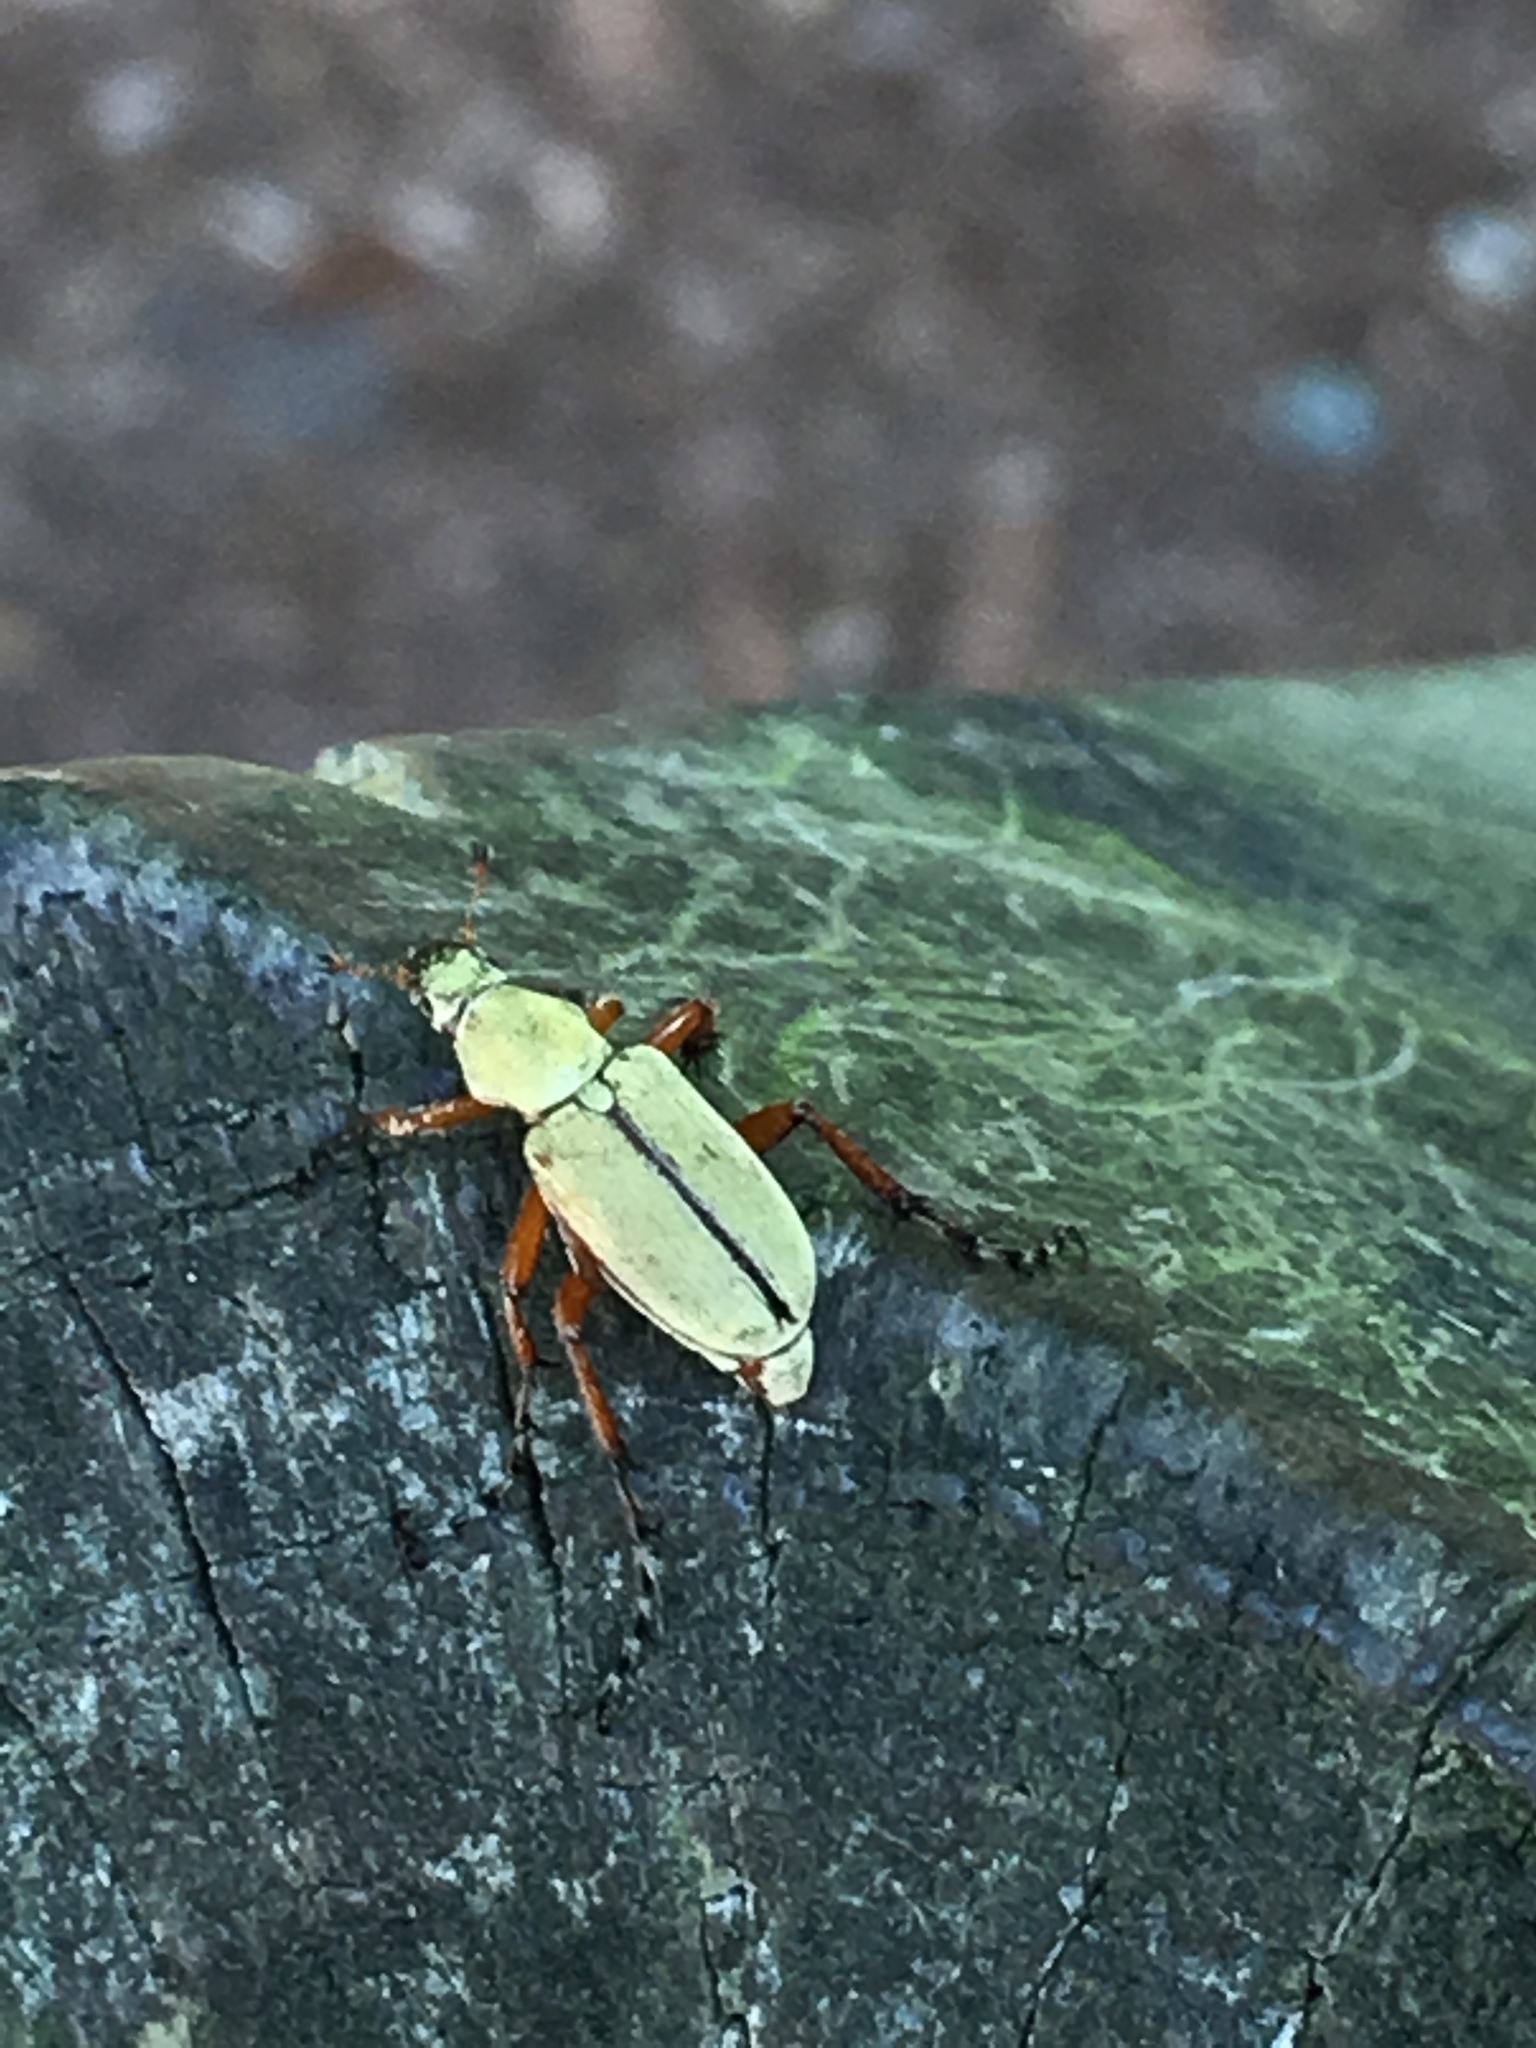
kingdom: Animalia
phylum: Arthropoda
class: Insecta
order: Coleoptera
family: Scarabaeidae
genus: Macrodactylus
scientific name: Macrodactylus subspinosus
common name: American rose chafer
